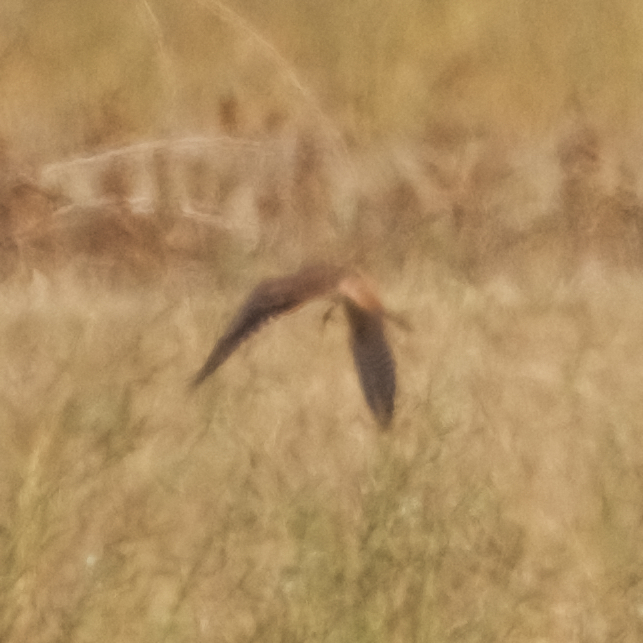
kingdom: Animalia
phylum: Chordata
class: Aves
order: Falconiformes
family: Falconidae
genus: Falco
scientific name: Falco sparverius
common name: American kestrel
